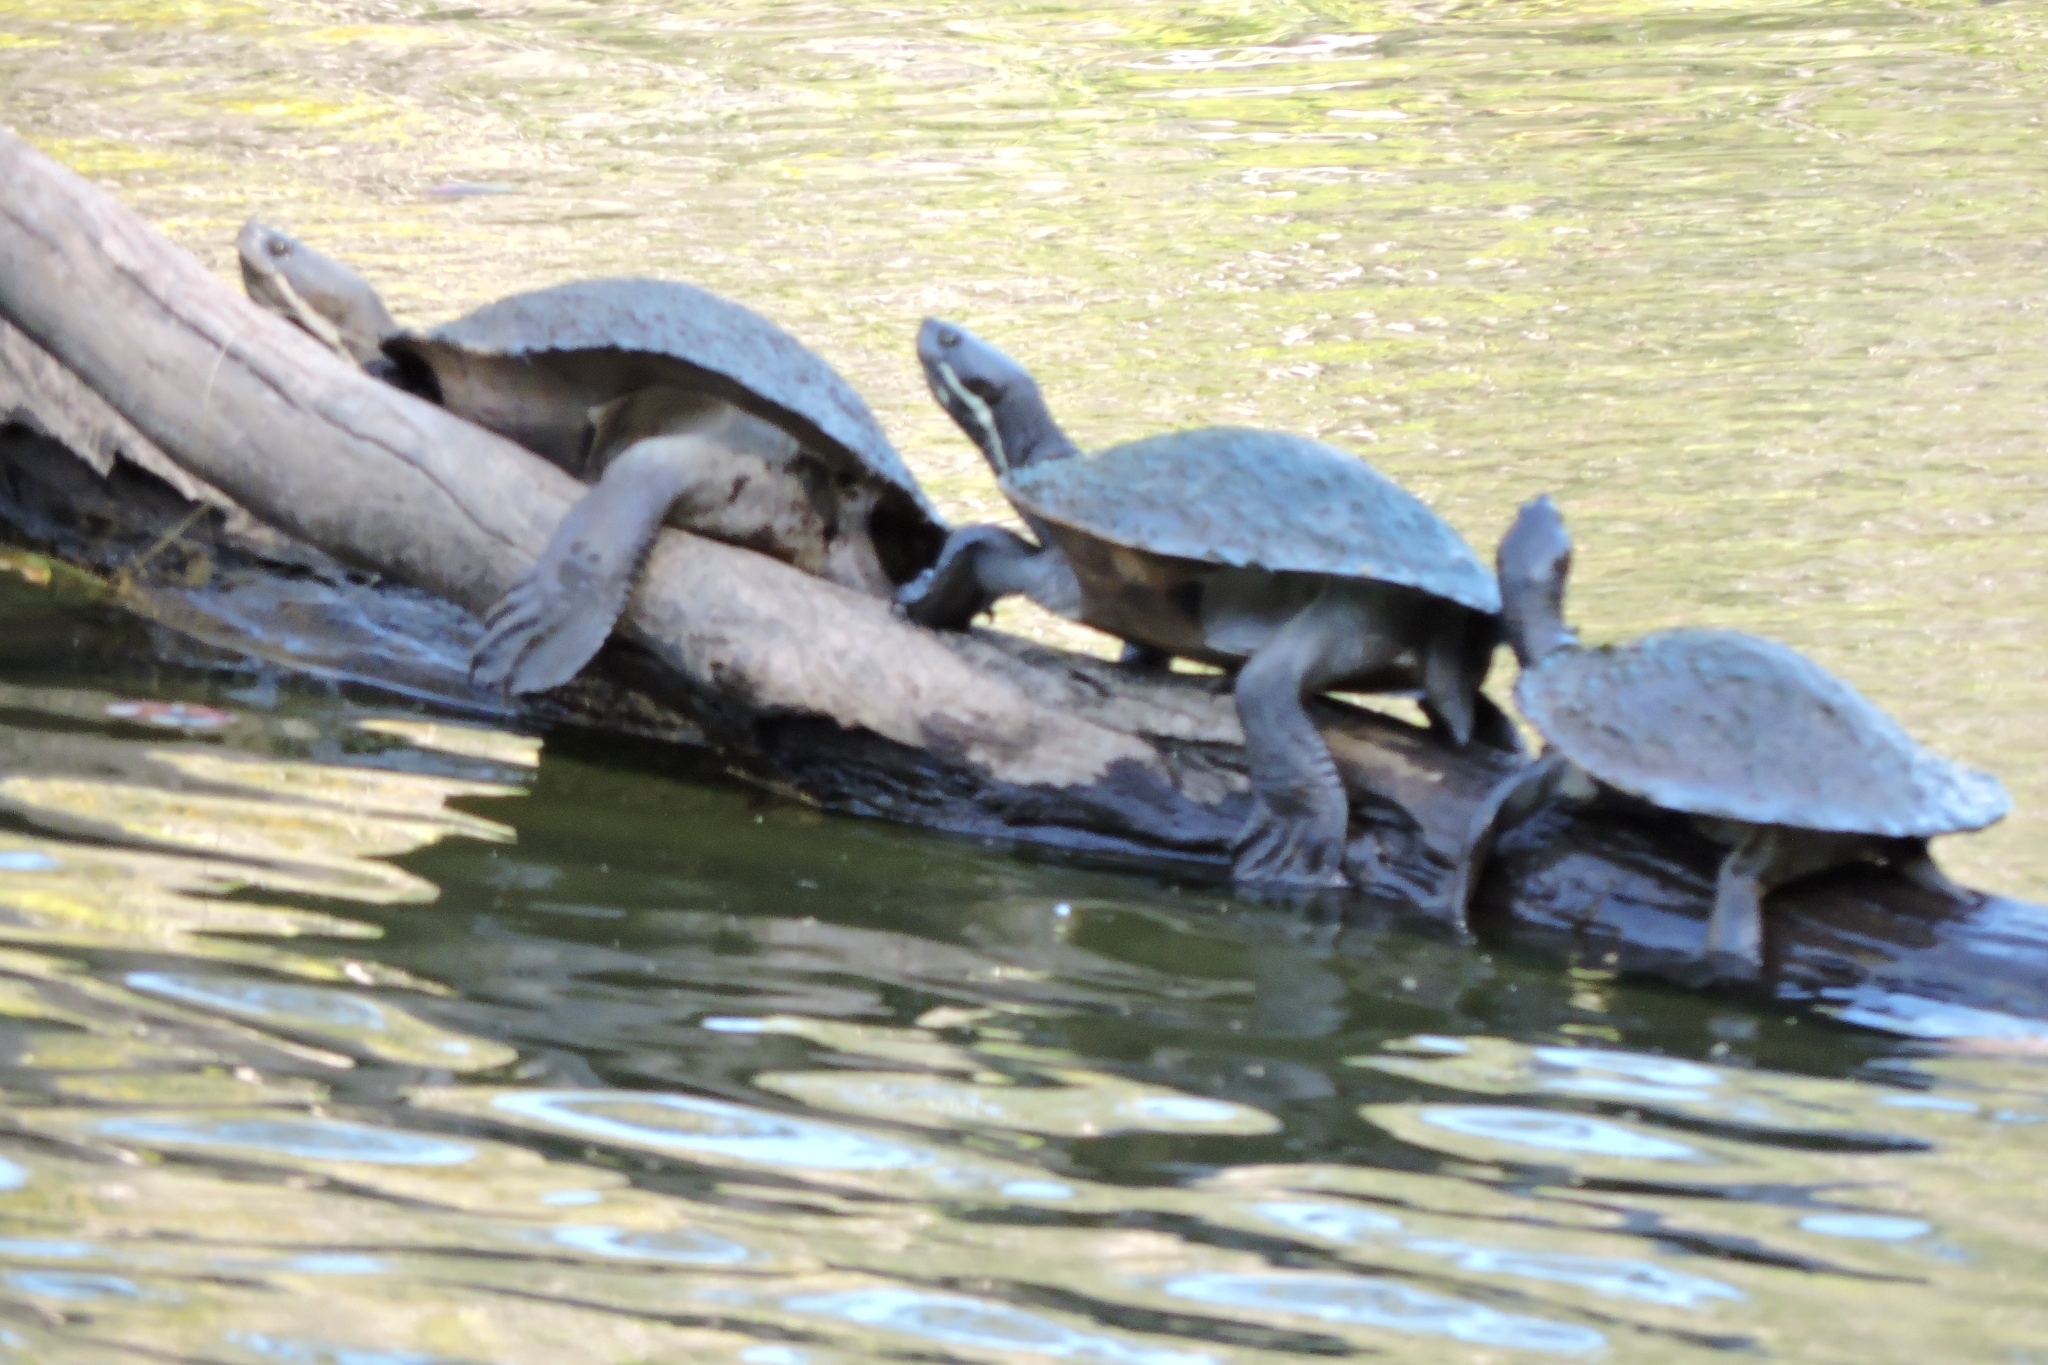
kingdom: Animalia
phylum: Chordata
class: Testudines
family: Chelidae
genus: Emydura
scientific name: Emydura macquarii
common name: Murray river turtle
